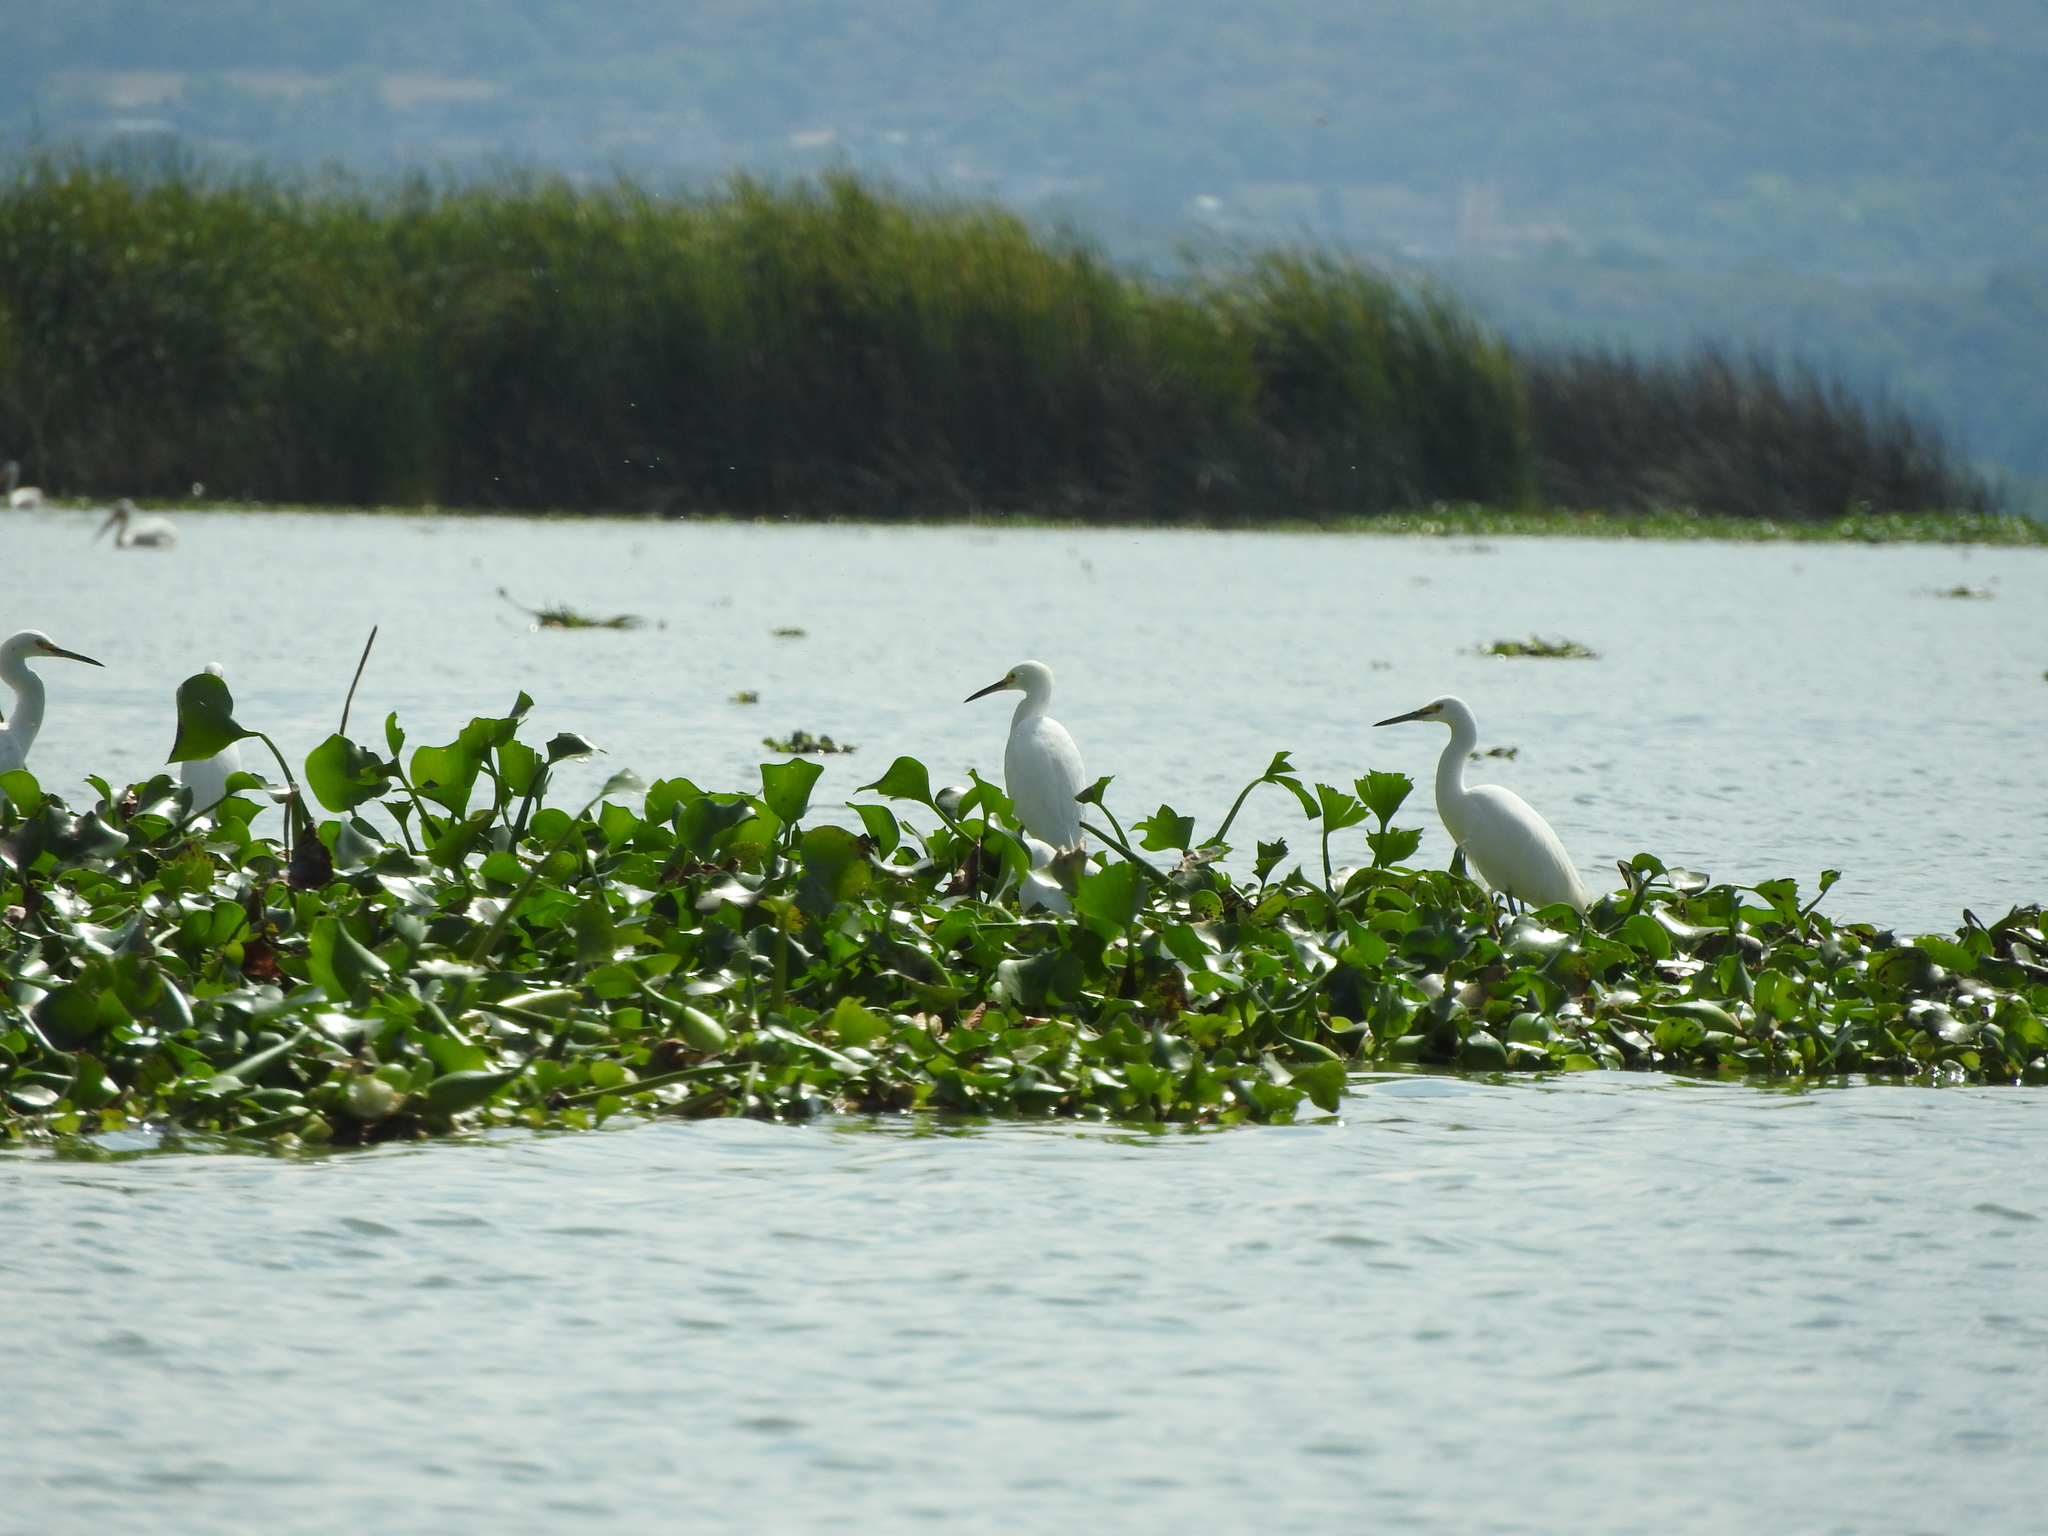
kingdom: Animalia
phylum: Chordata
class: Aves
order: Pelecaniformes
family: Ardeidae
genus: Egretta
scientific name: Egretta thula
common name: Snowy egret
